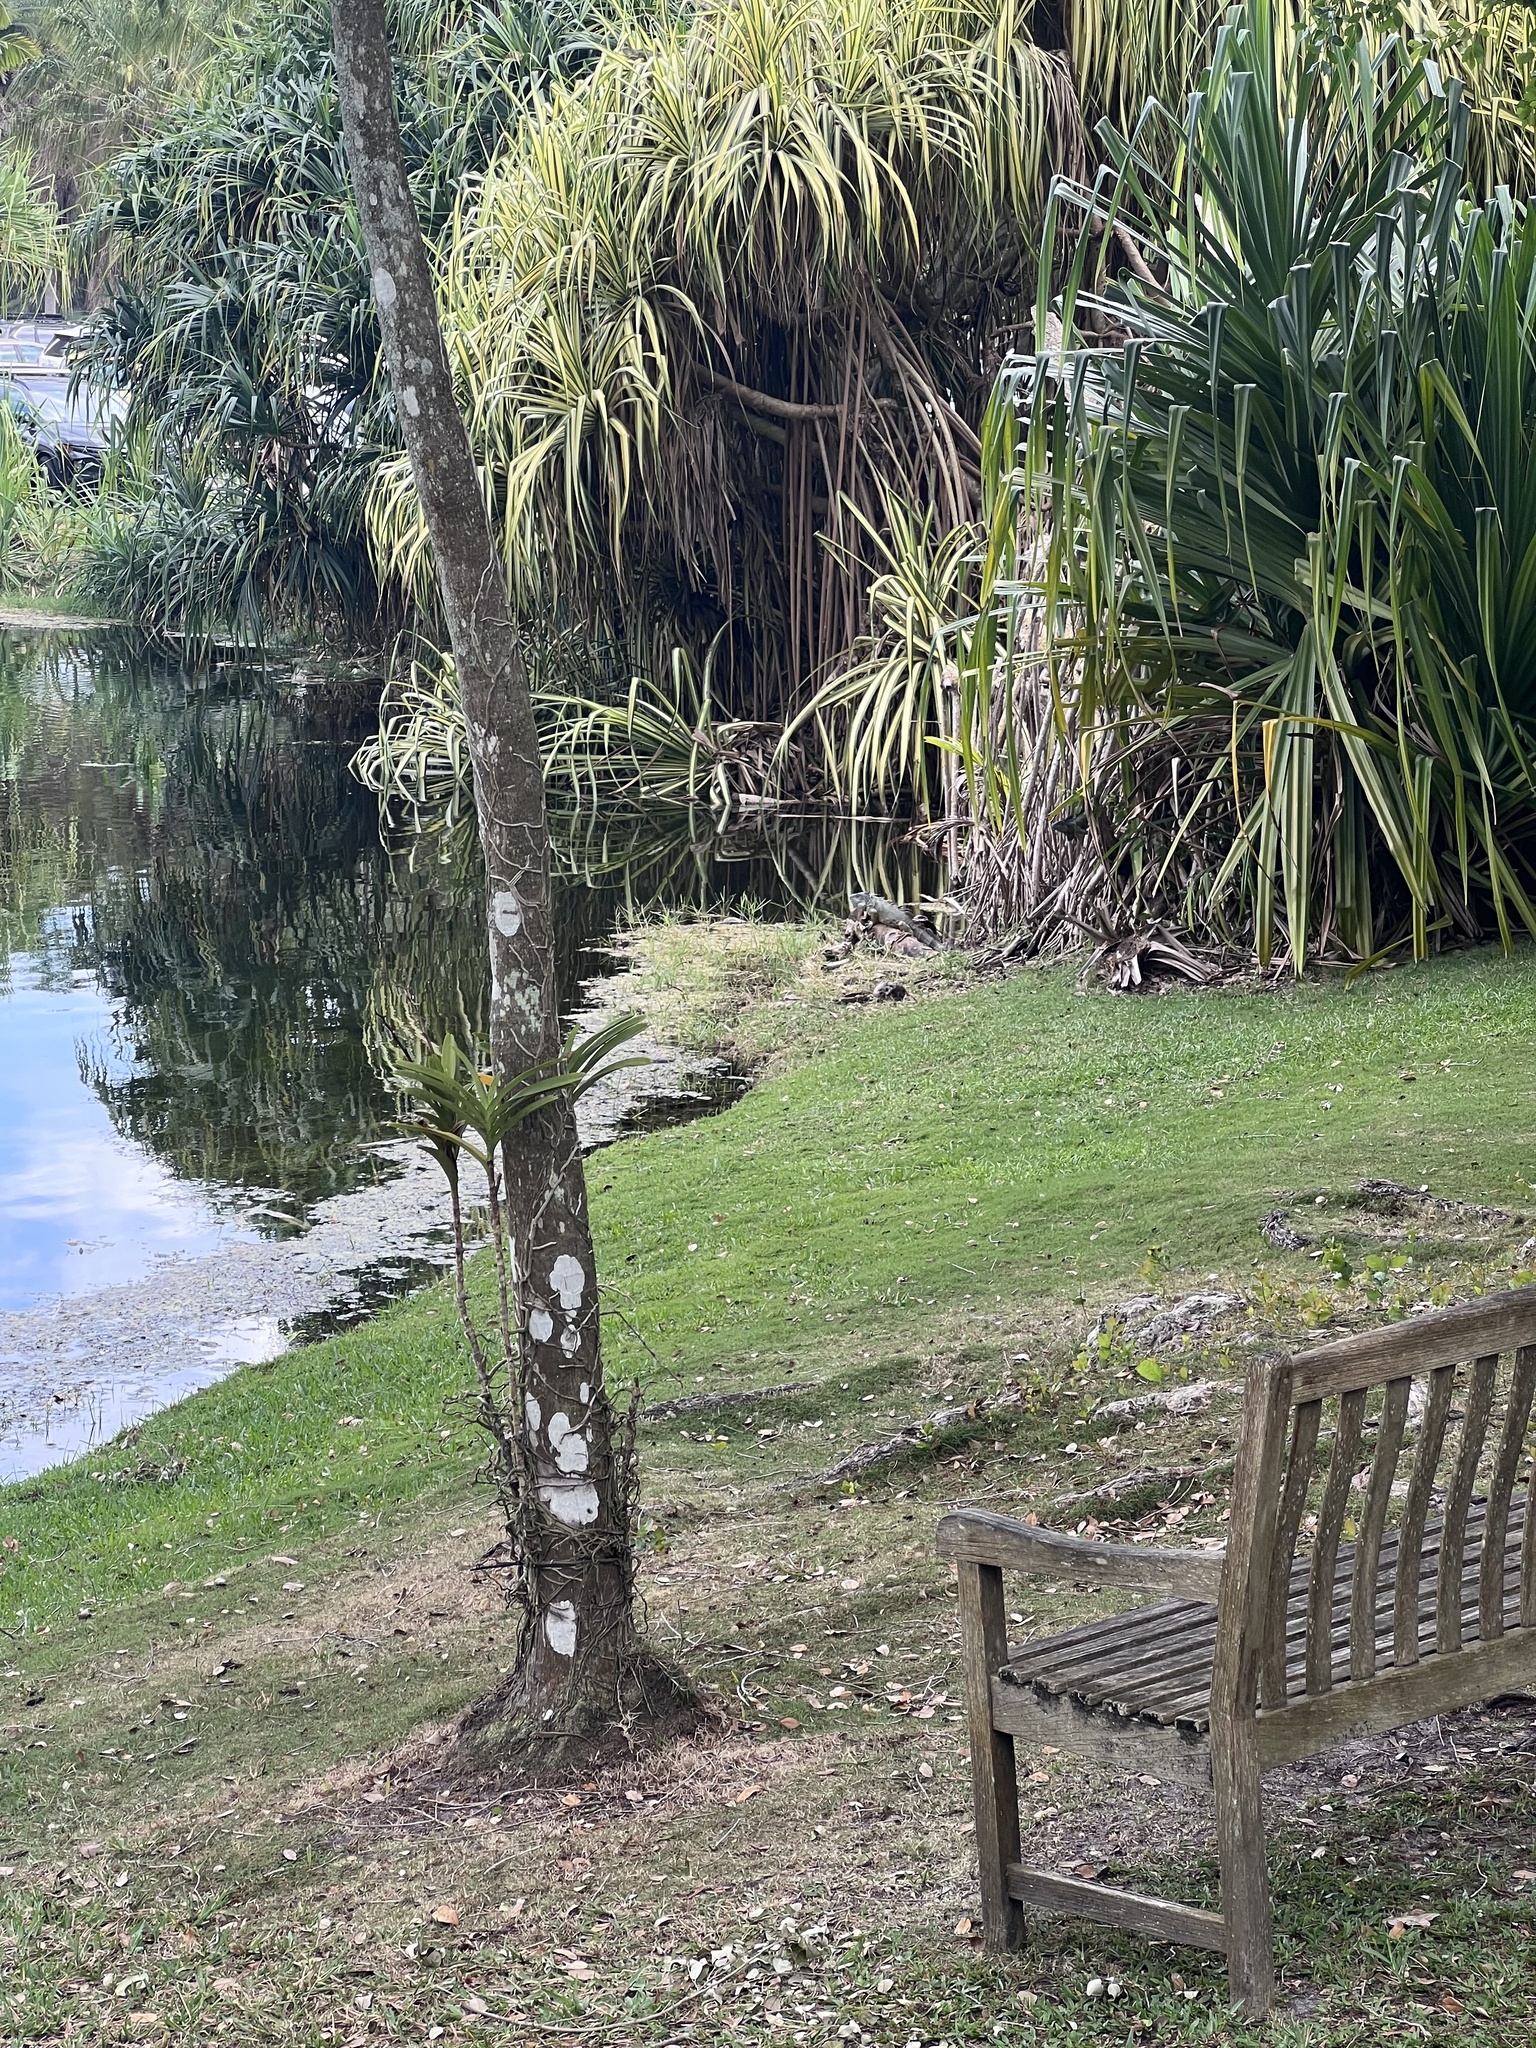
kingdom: Animalia
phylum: Chordata
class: Squamata
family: Iguanidae
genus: Iguana
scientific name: Iguana iguana
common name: Green iguana
